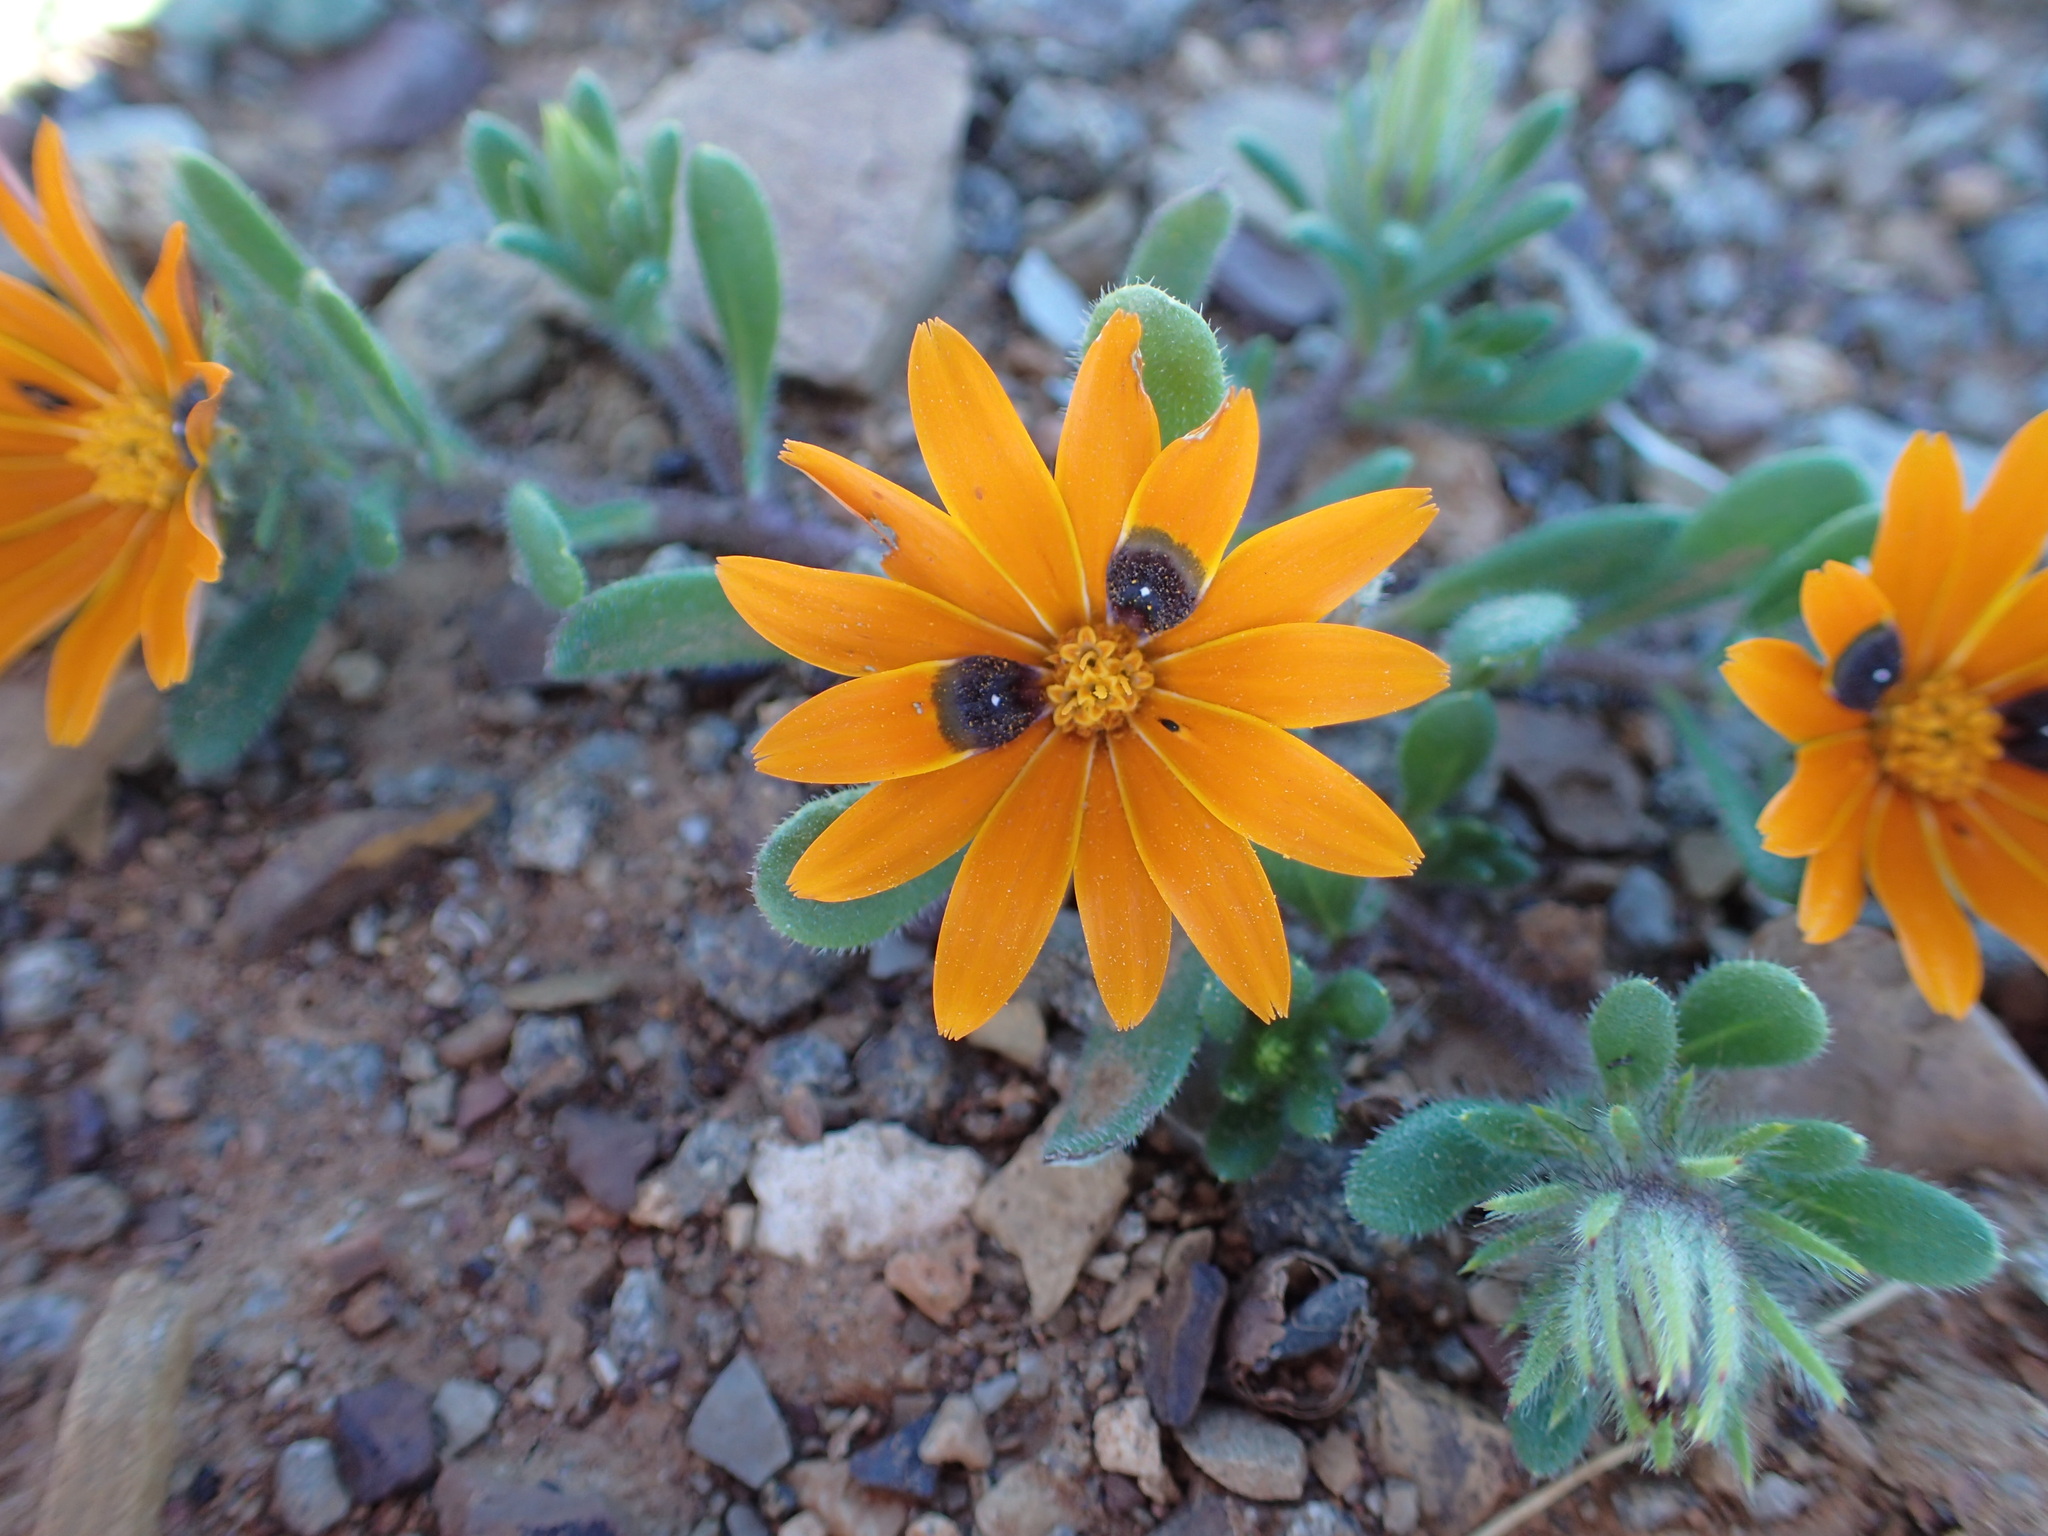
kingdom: Plantae
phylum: Tracheophyta
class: Magnoliopsida
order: Asterales
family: Asteraceae
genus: Gorteria
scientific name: Gorteria diffusa
